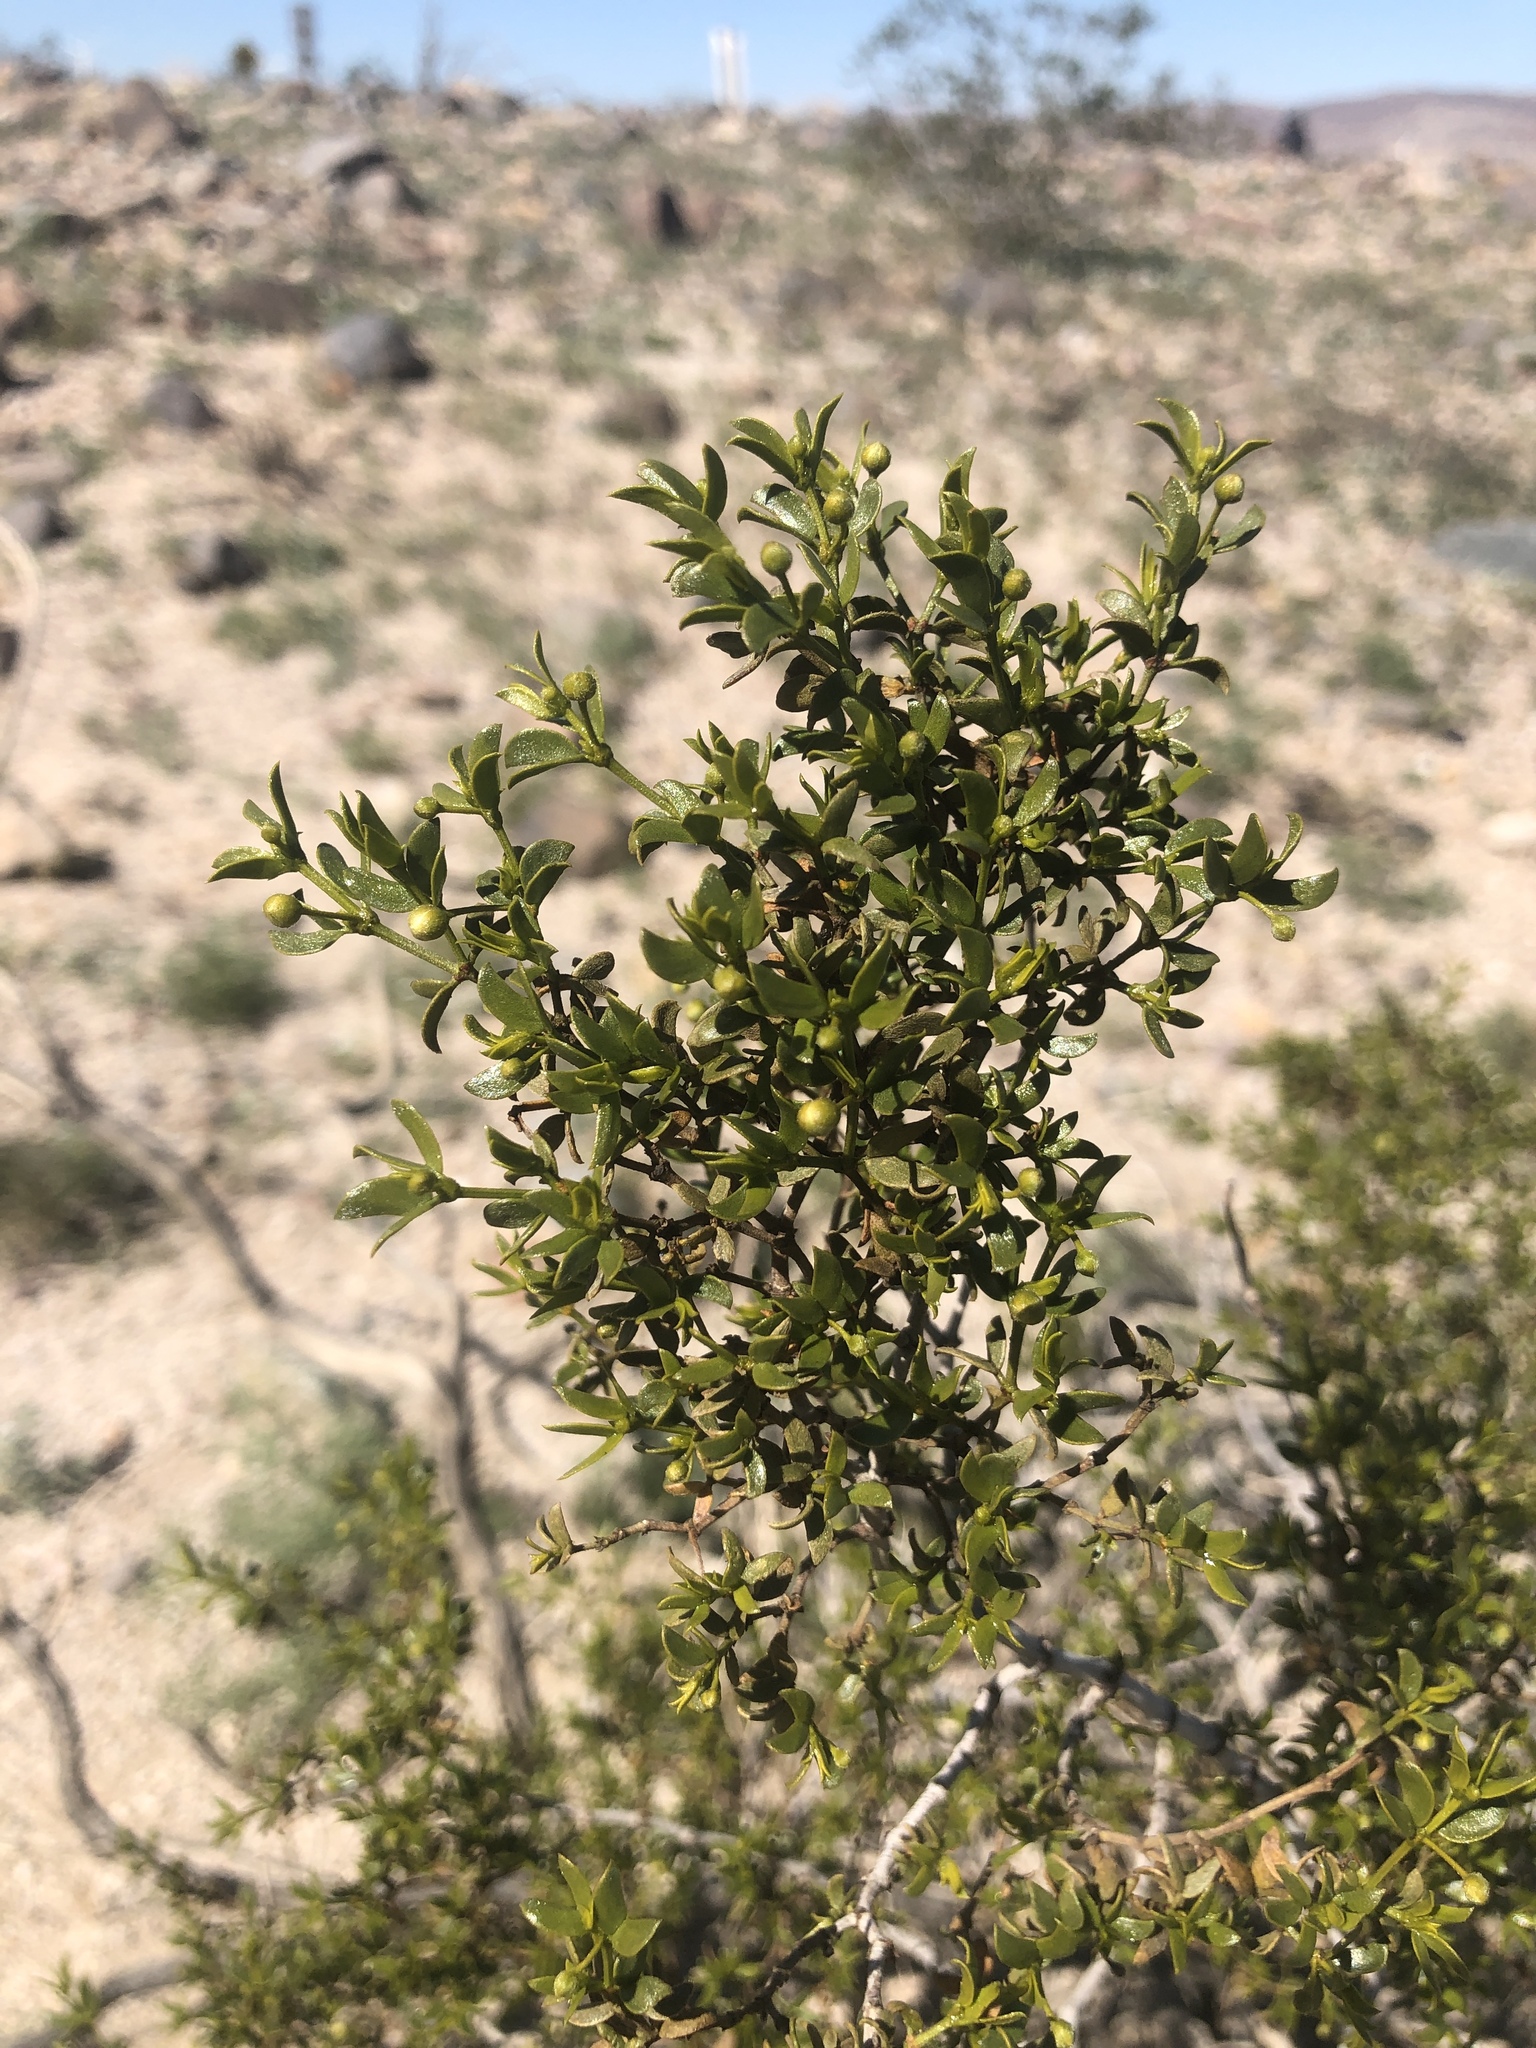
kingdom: Plantae
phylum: Tracheophyta
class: Magnoliopsida
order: Zygophyllales
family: Zygophyllaceae
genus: Larrea
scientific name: Larrea tridentata
